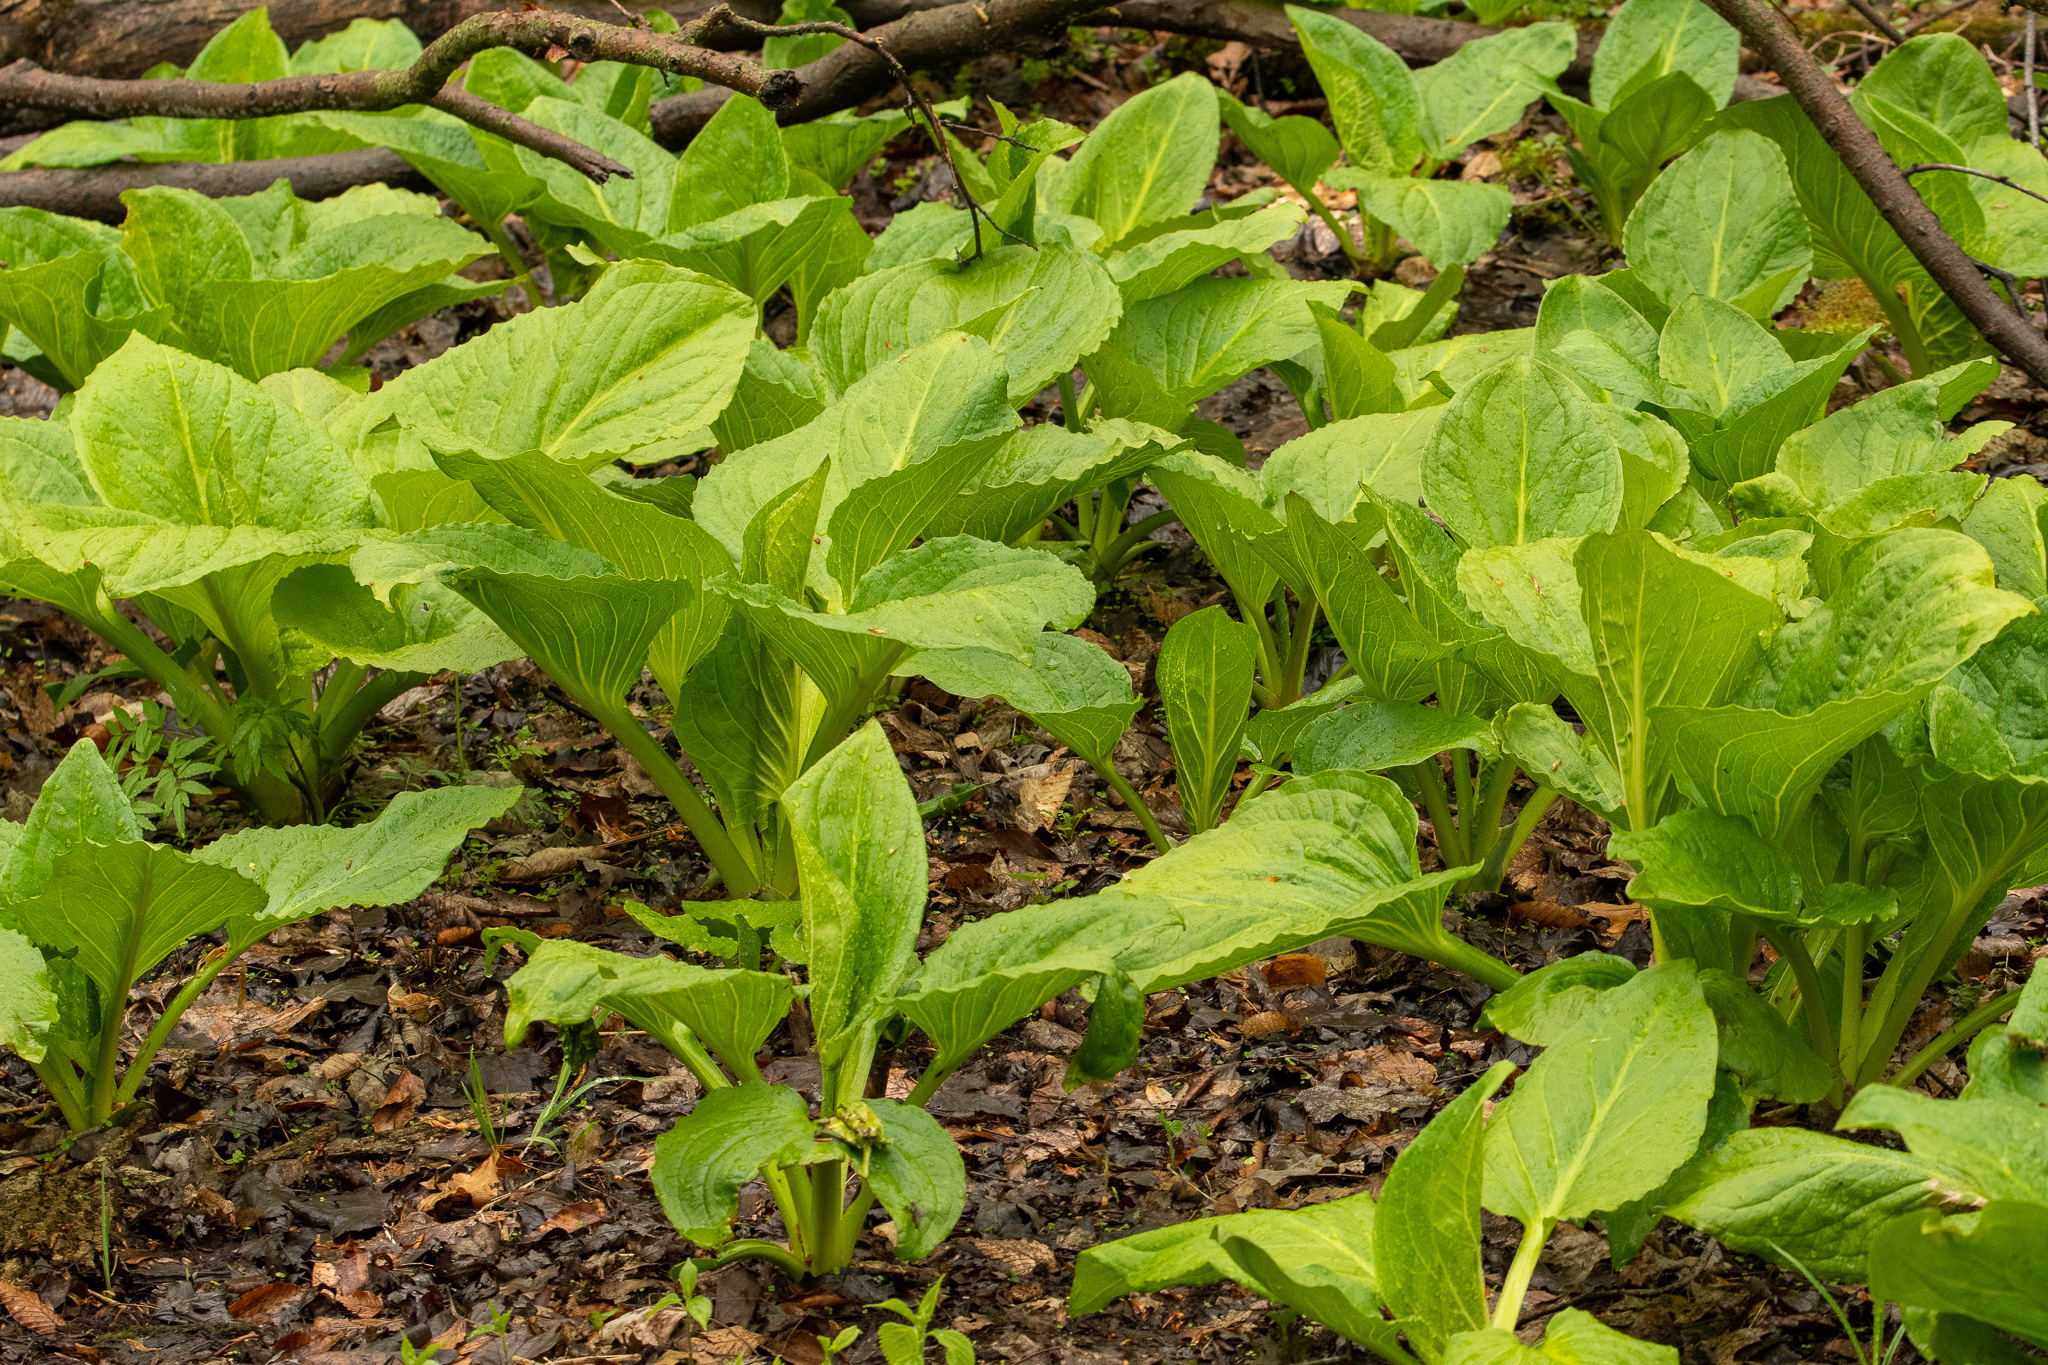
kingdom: Plantae
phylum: Tracheophyta
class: Liliopsida
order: Alismatales
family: Araceae
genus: Symplocarpus
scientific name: Symplocarpus foetidus
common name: Eastern skunk cabbage
